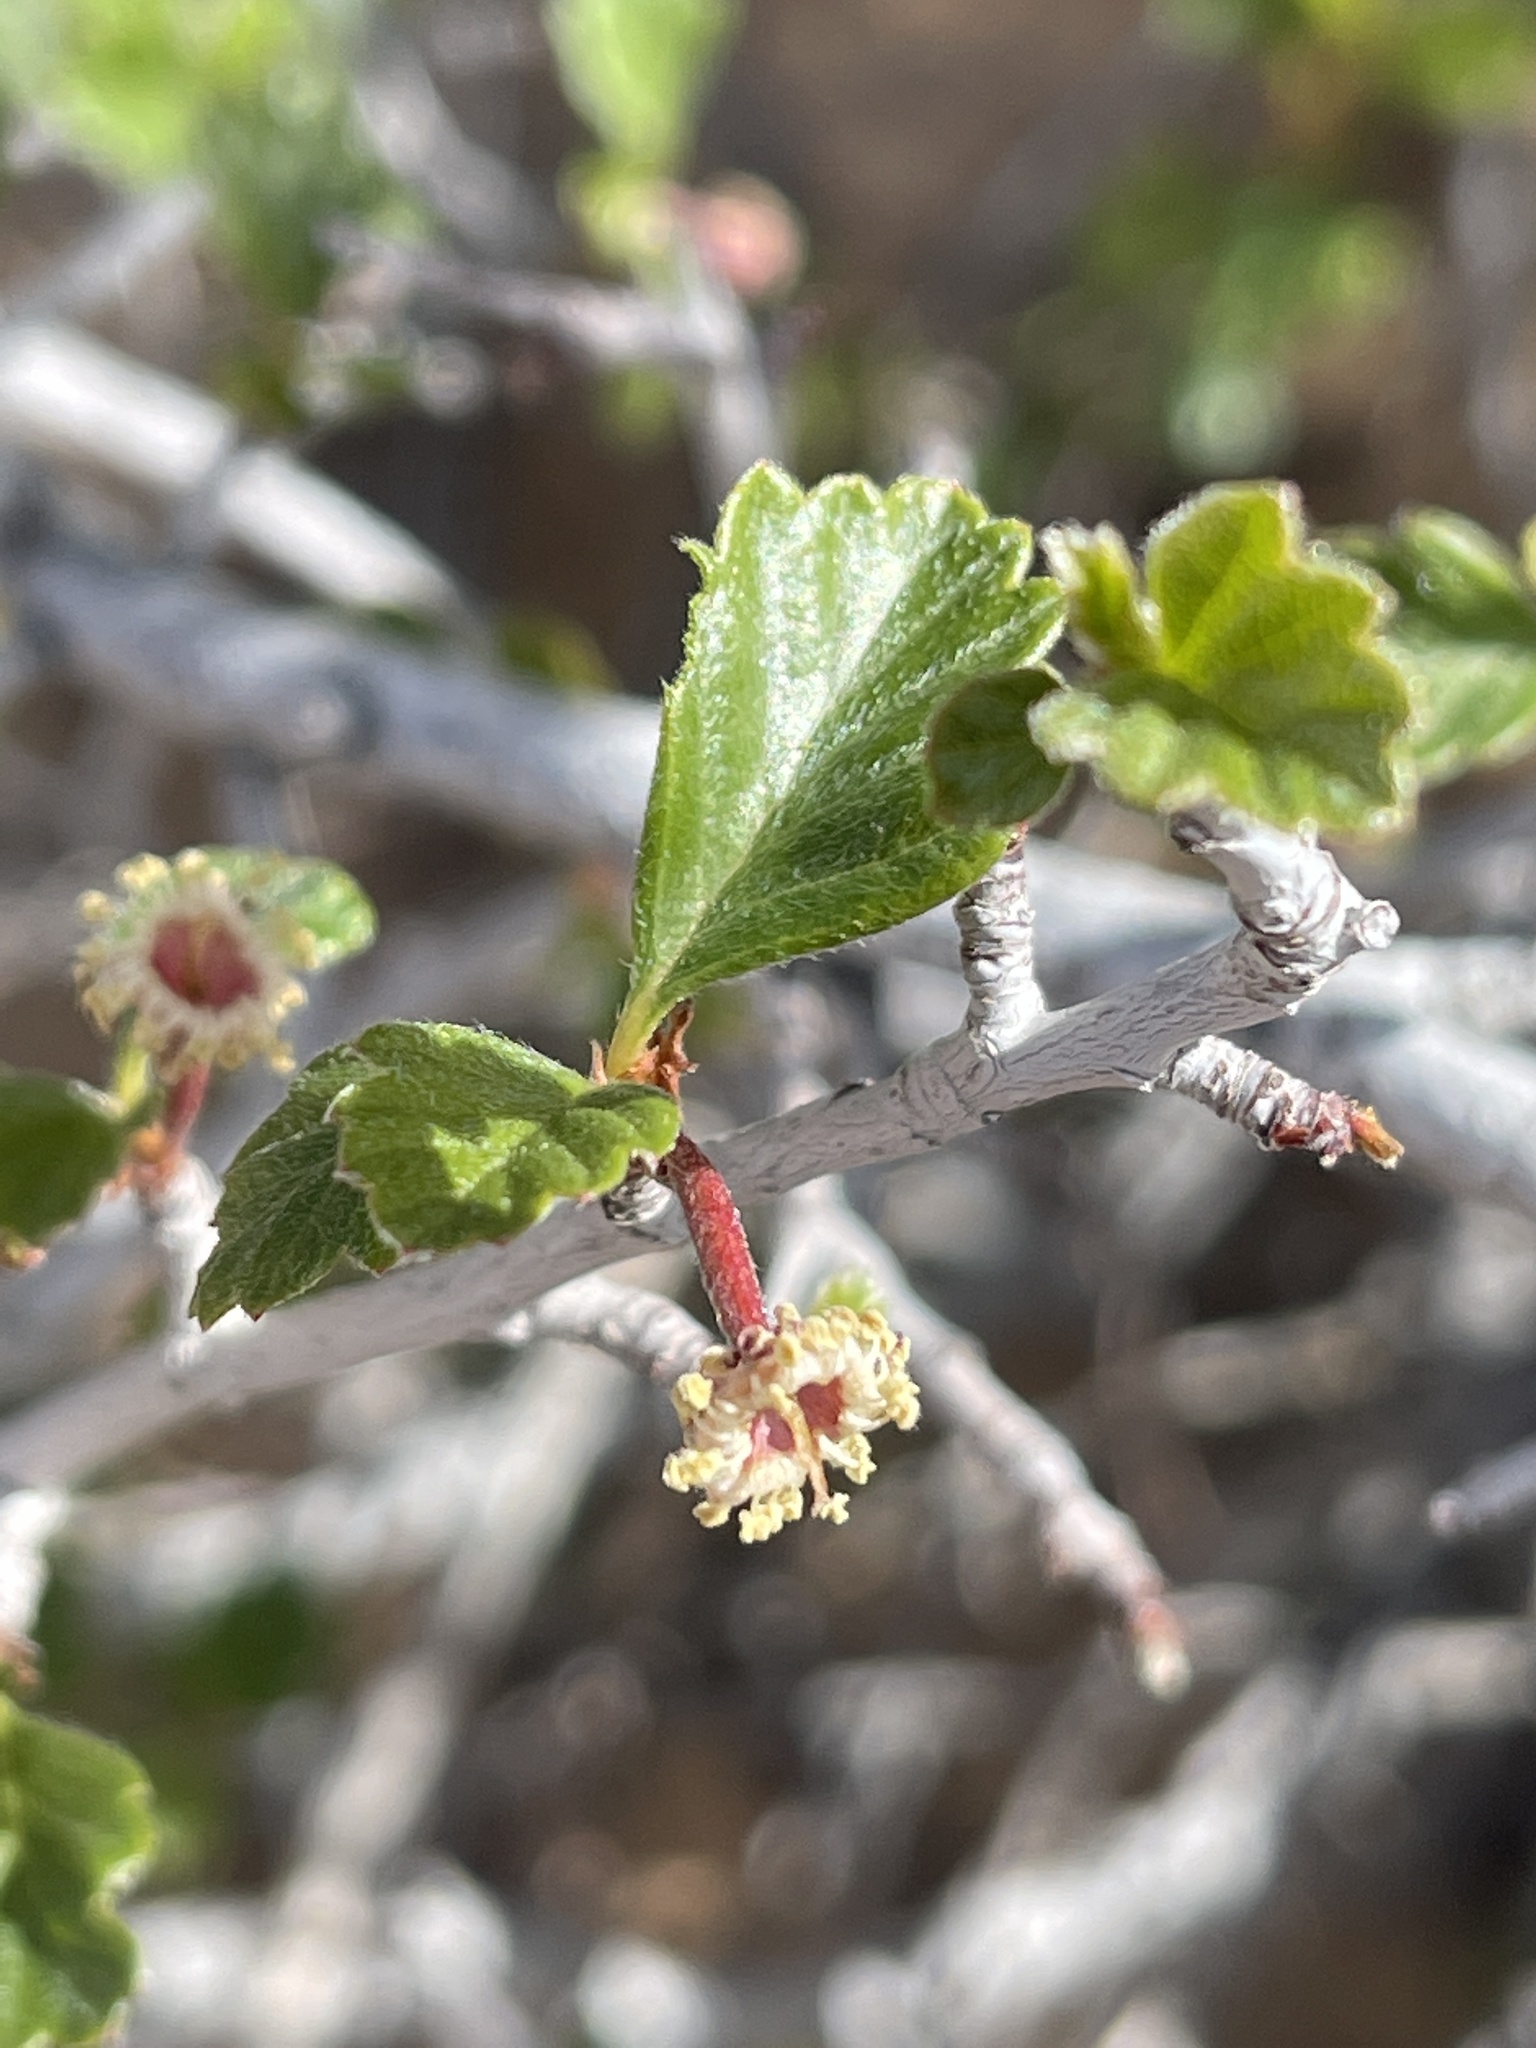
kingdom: Plantae
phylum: Tracheophyta
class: Magnoliopsida
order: Rosales
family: Rosaceae
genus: Cercocarpus
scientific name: Cercocarpus montanus
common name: Alder-leaf cercocarpus
